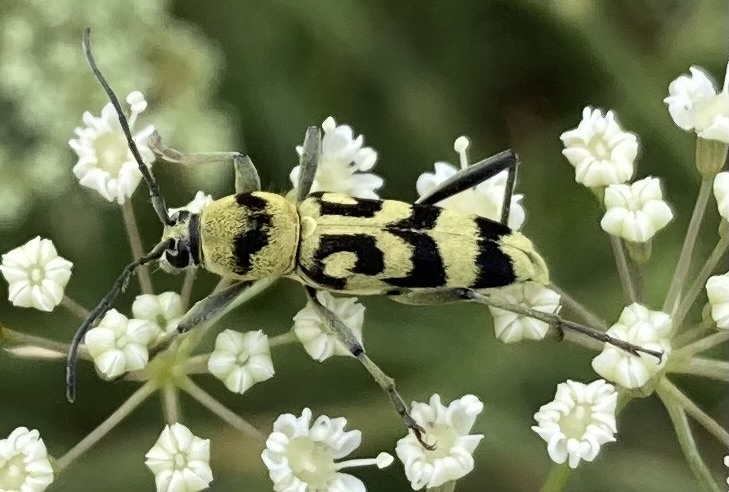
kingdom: Animalia
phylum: Arthropoda
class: Insecta
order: Coleoptera
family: Cerambycidae
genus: Chlorophorus
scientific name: Chlorophorus varius
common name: Grape wood borer
